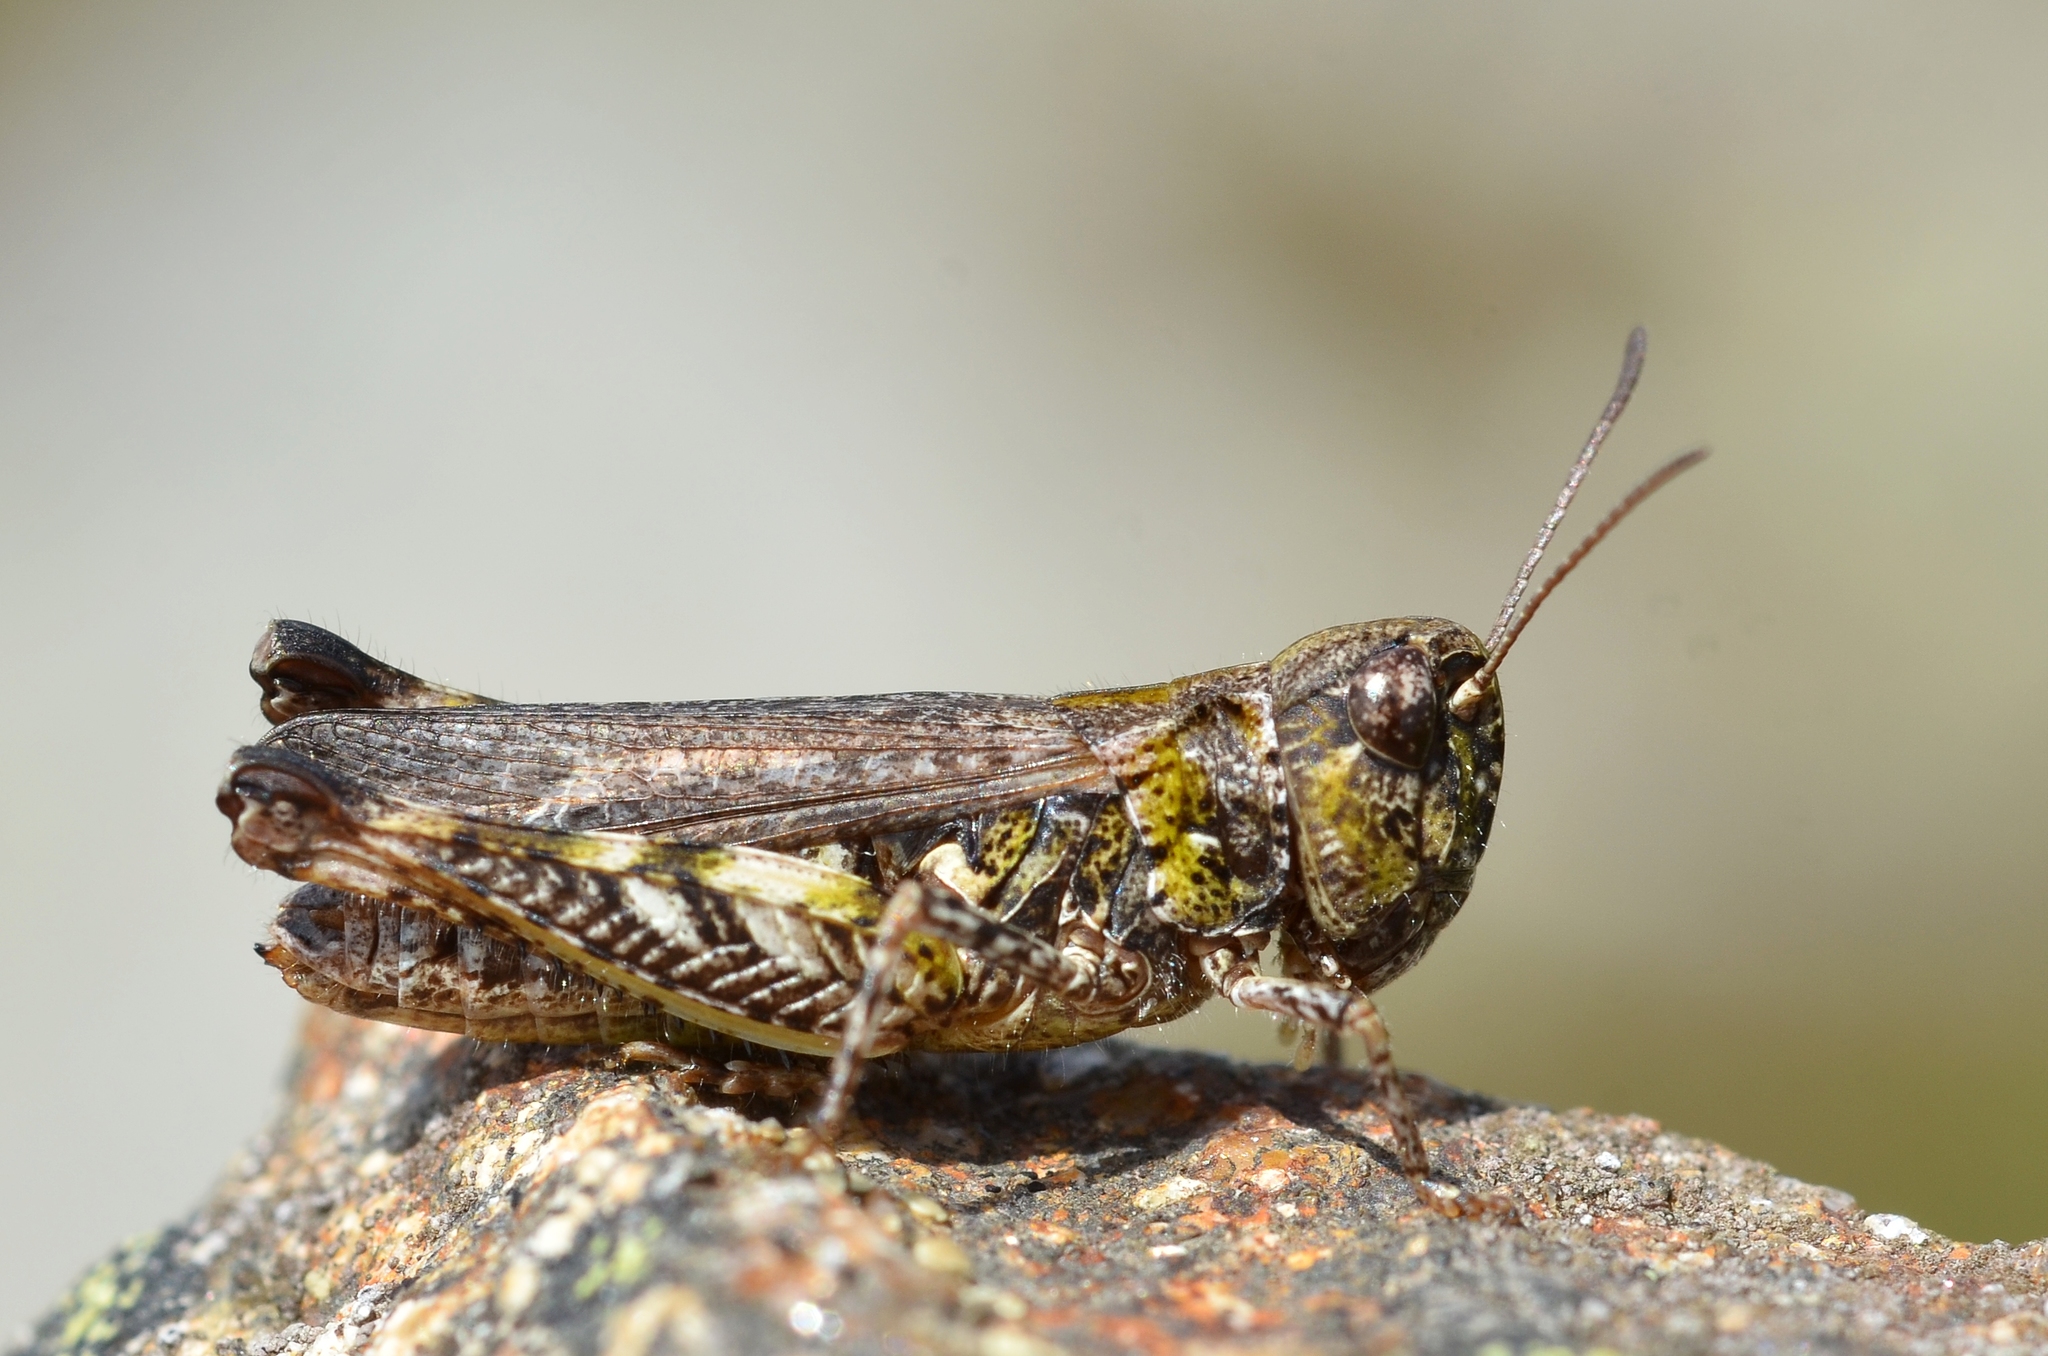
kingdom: Animalia
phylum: Arthropoda
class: Insecta
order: Orthoptera
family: Acrididae
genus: Myrmeleotettix
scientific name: Myrmeleotettix maculatus
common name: Mottled grasshopper
